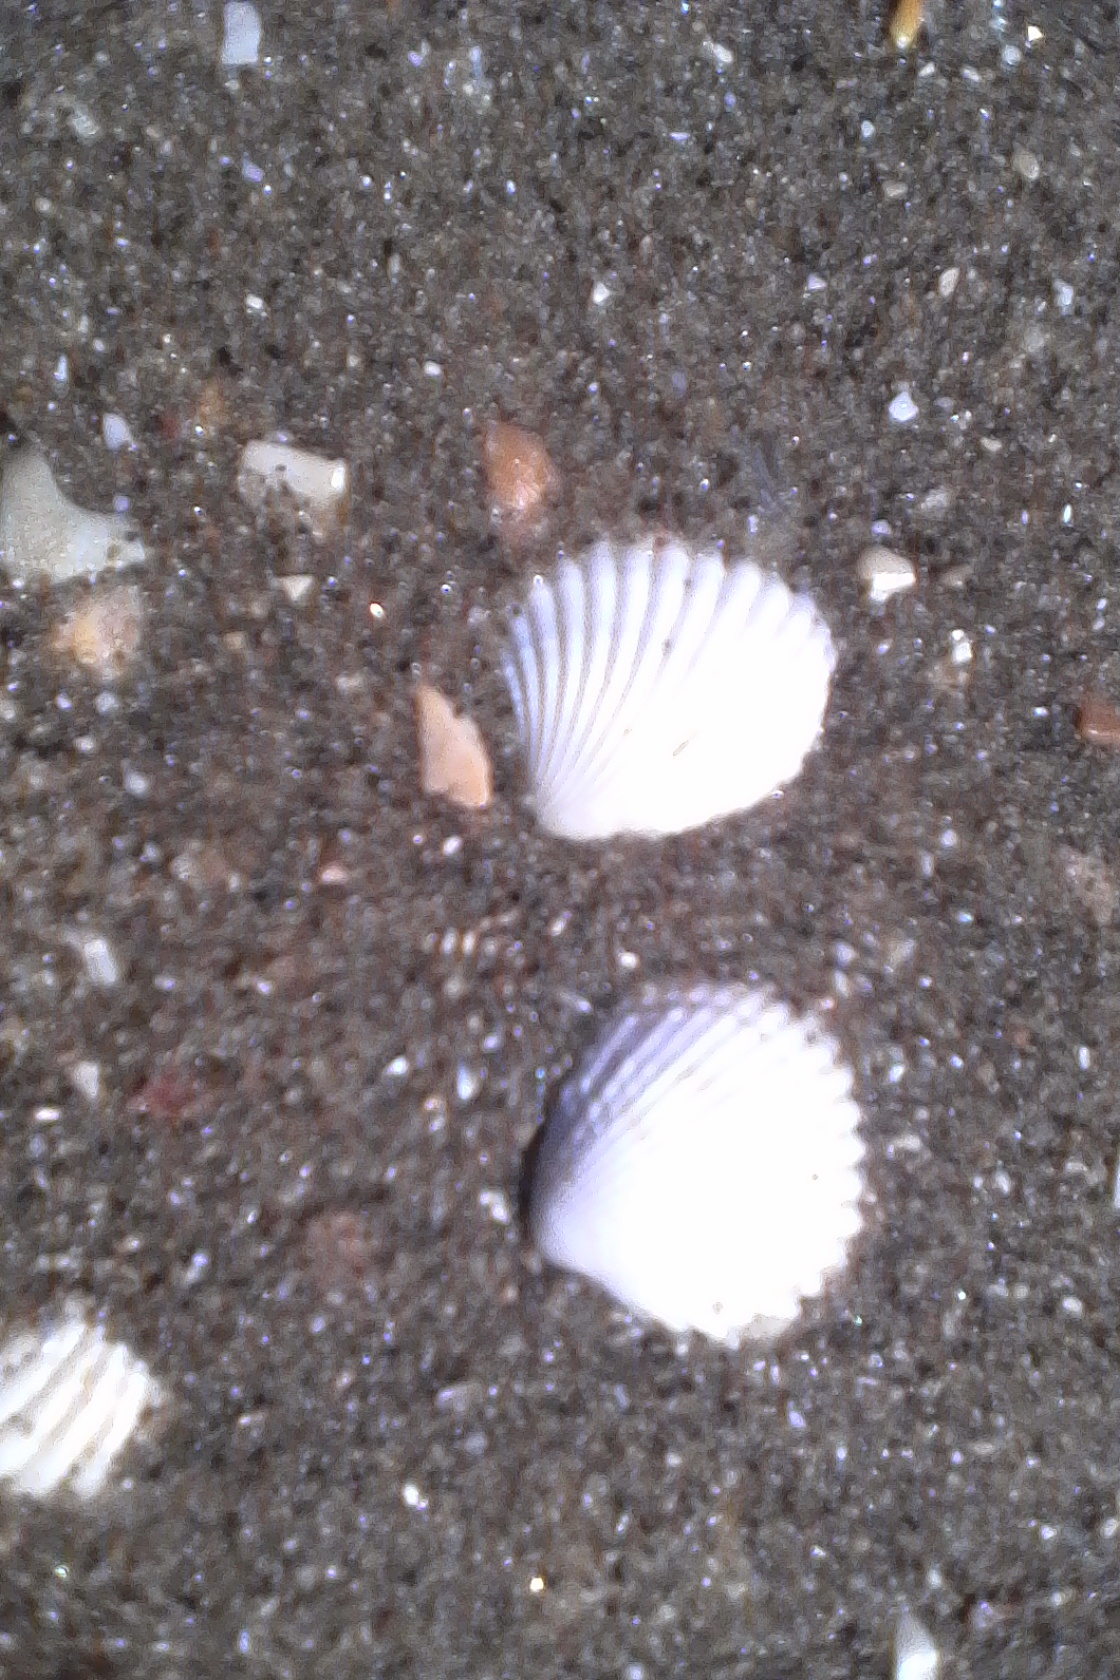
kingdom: Animalia
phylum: Mollusca
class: Bivalvia
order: Carditida
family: Carditidae
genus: Purpurocardia
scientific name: Purpurocardia purpurata
